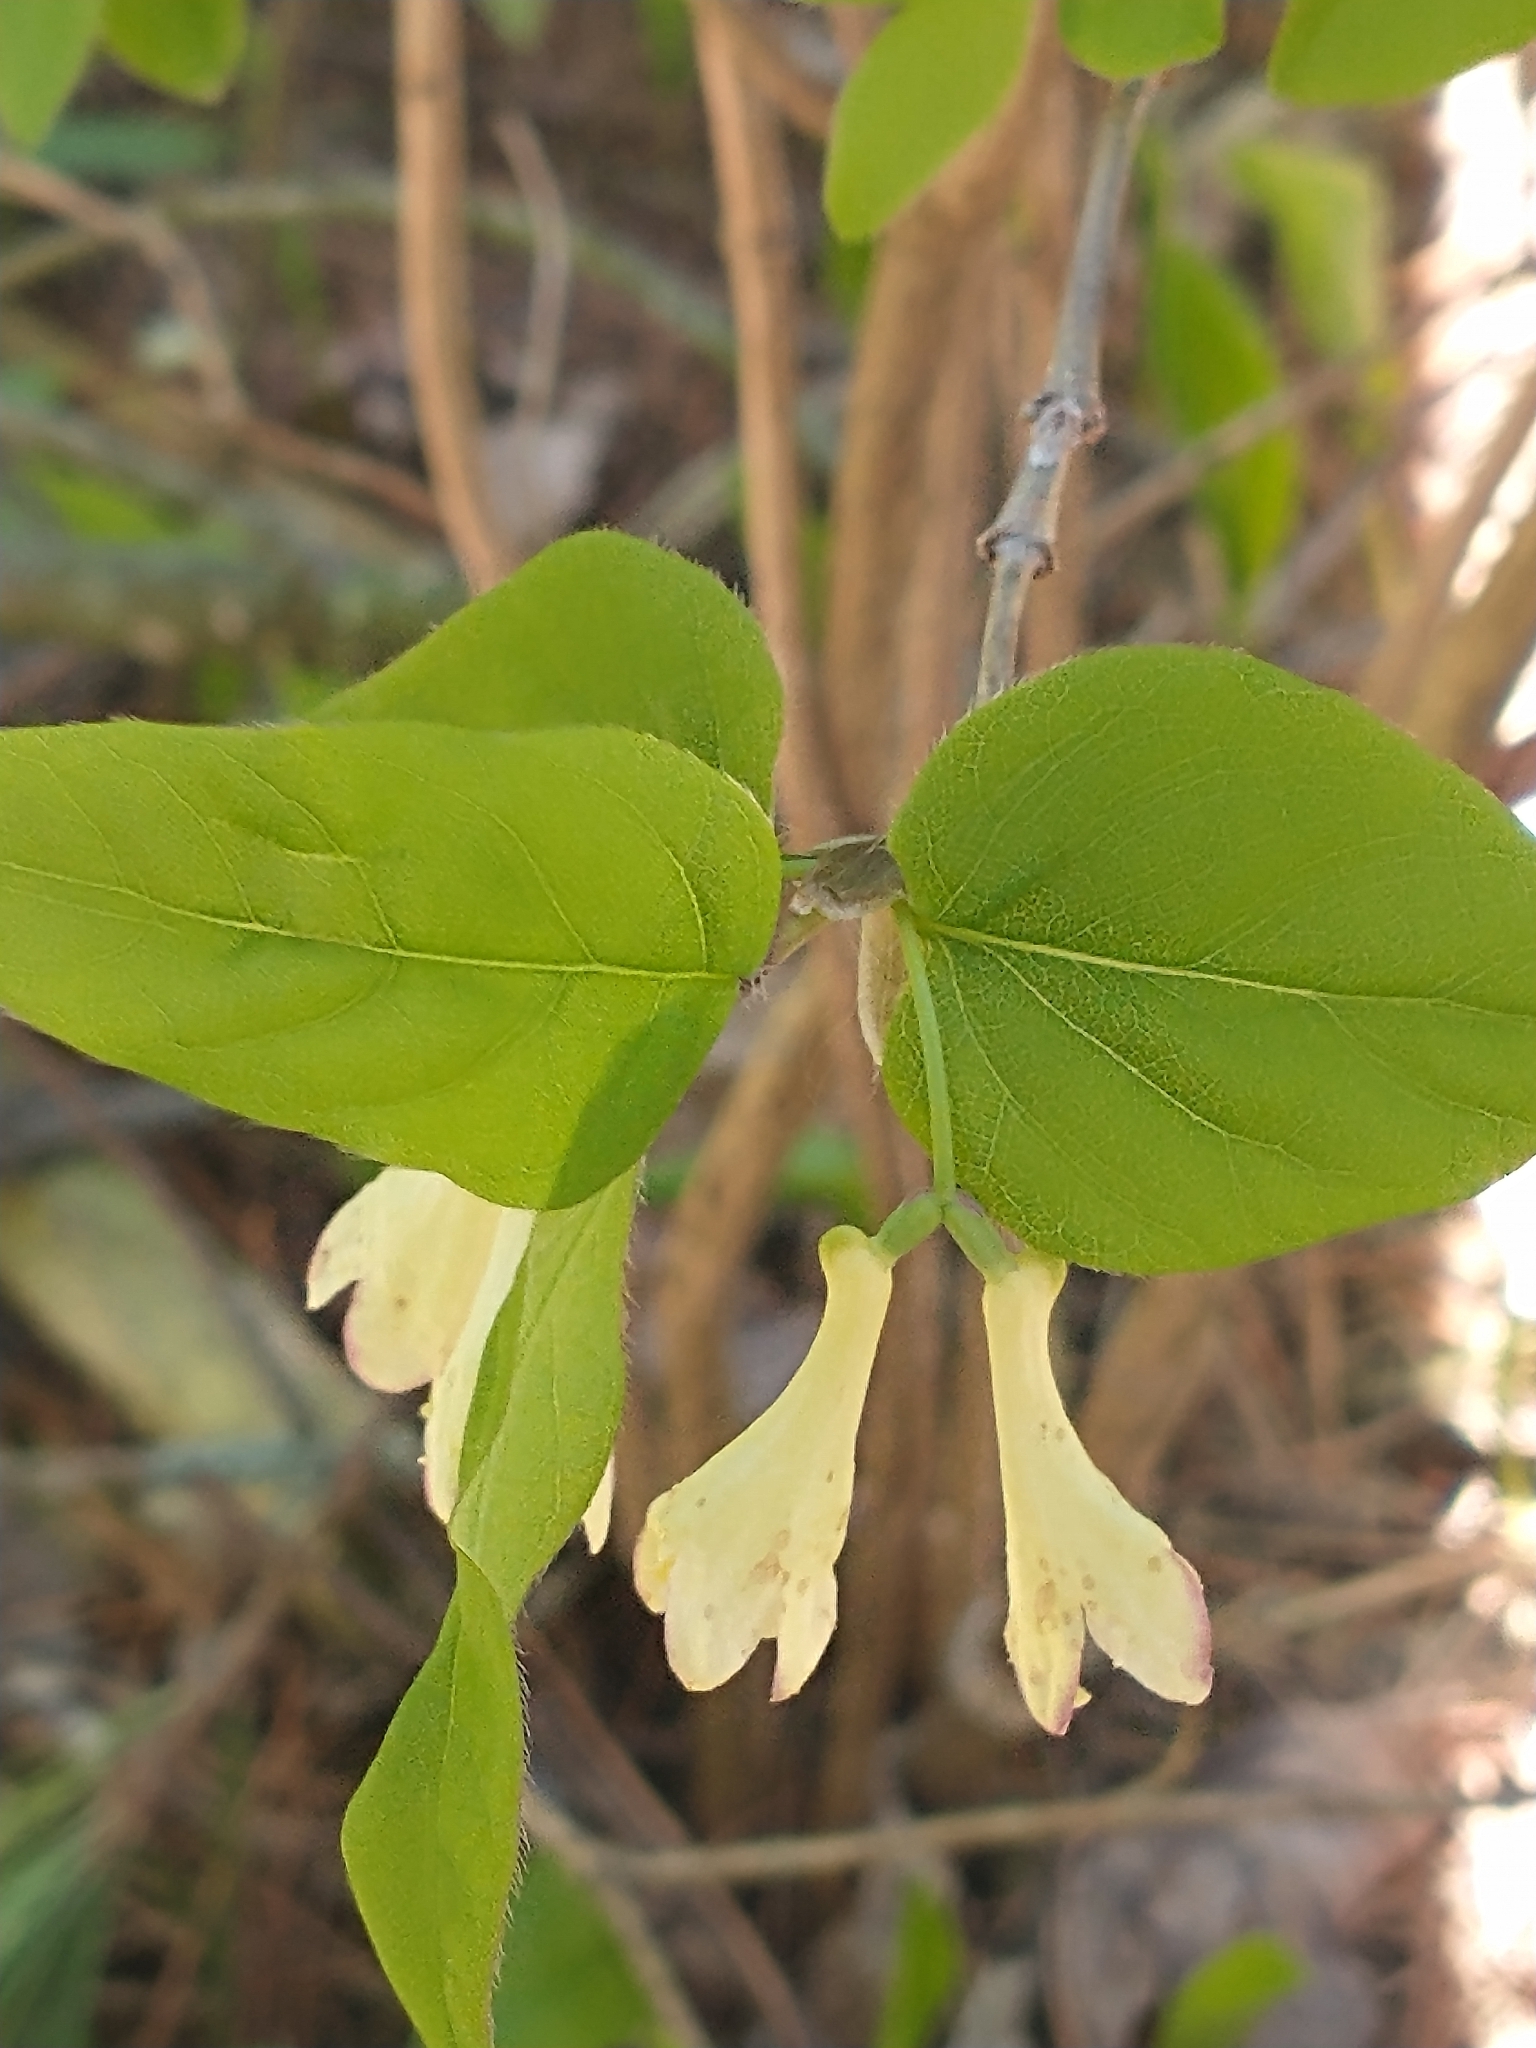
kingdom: Plantae
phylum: Tracheophyta
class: Magnoliopsida
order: Dipsacales
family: Caprifoliaceae
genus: Lonicera
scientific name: Lonicera canadensis
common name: American fly-honeysuckle
